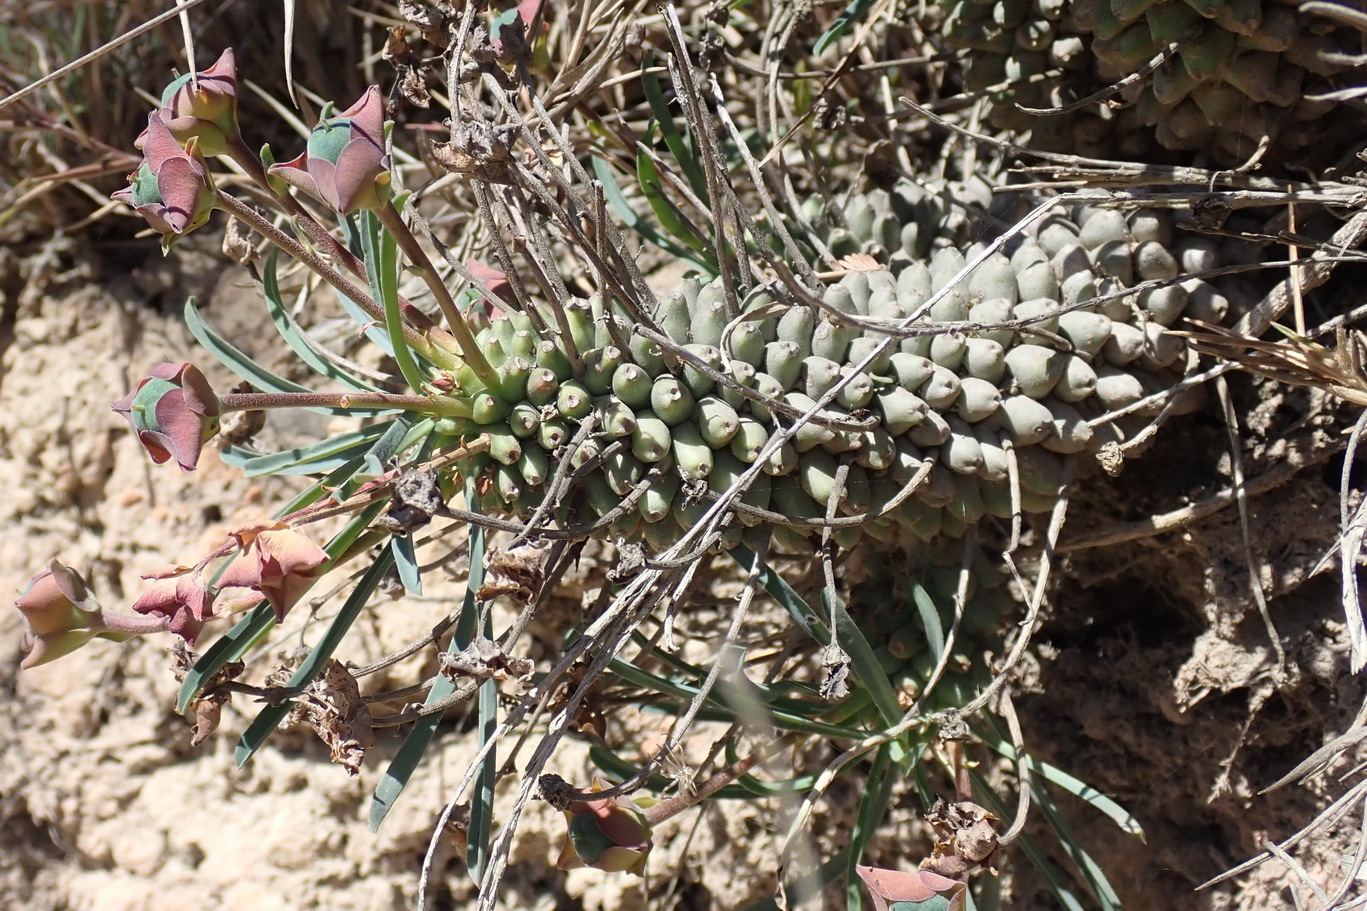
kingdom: Plantae
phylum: Tracheophyta
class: Magnoliopsida
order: Malpighiales
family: Euphorbiaceae
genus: Euphorbia
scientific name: Euphorbia clava
